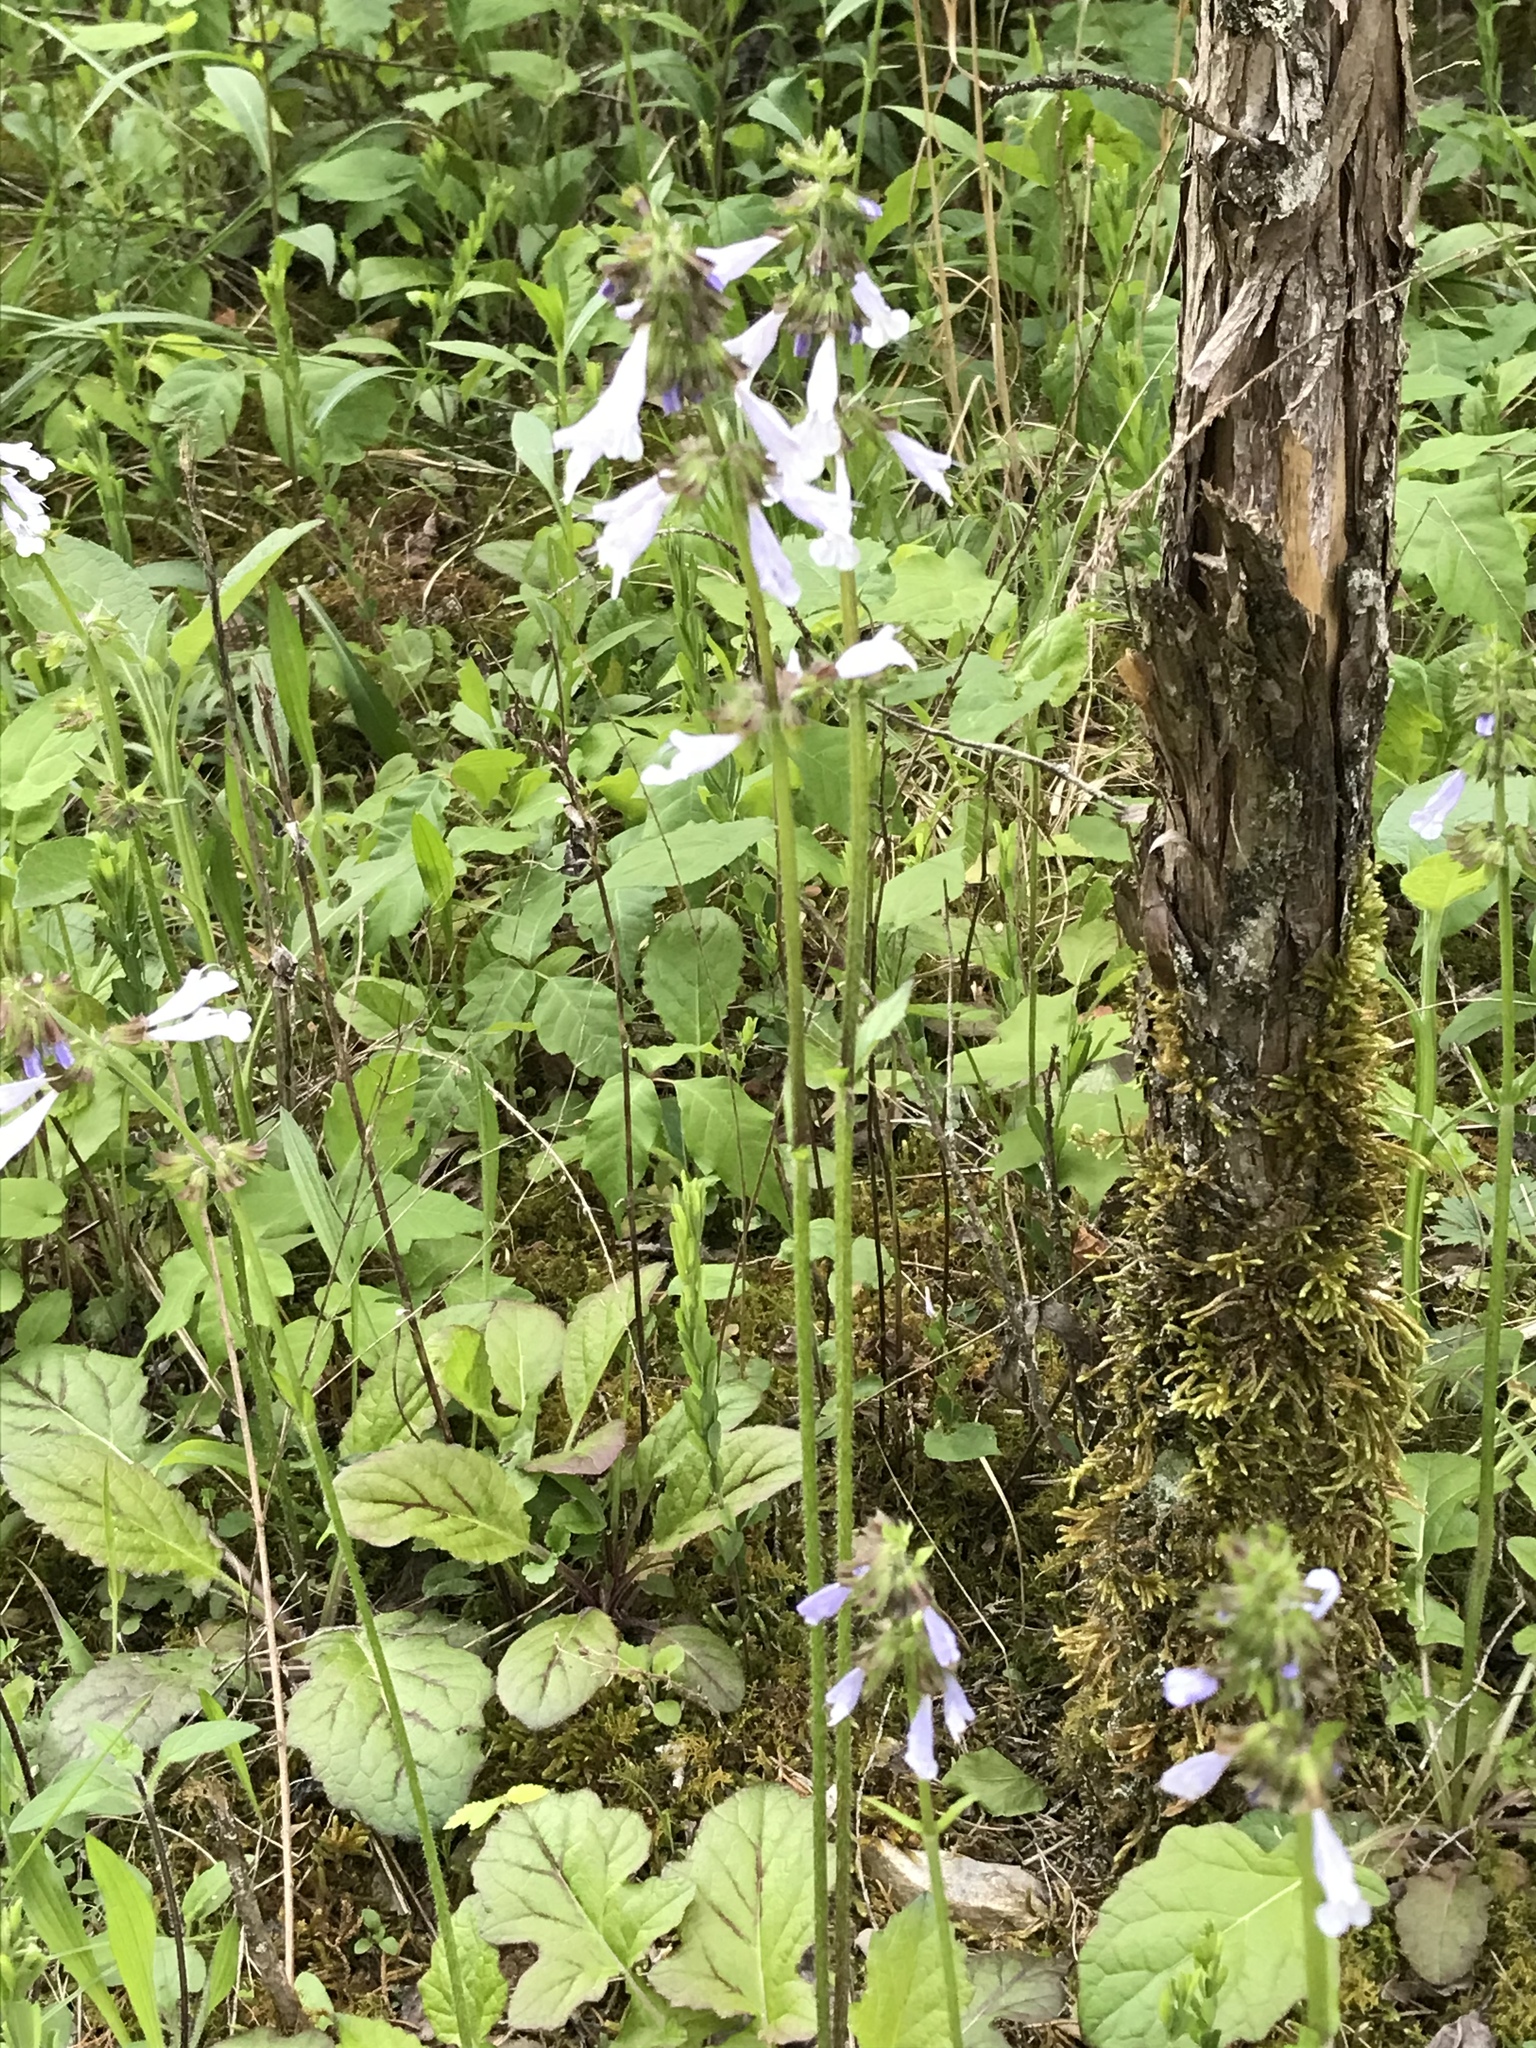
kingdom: Plantae
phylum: Tracheophyta
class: Magnoliopsida
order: Lamiales
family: Lamiaceae
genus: Salvia
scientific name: Salvia lyrata
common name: Cancerweed
